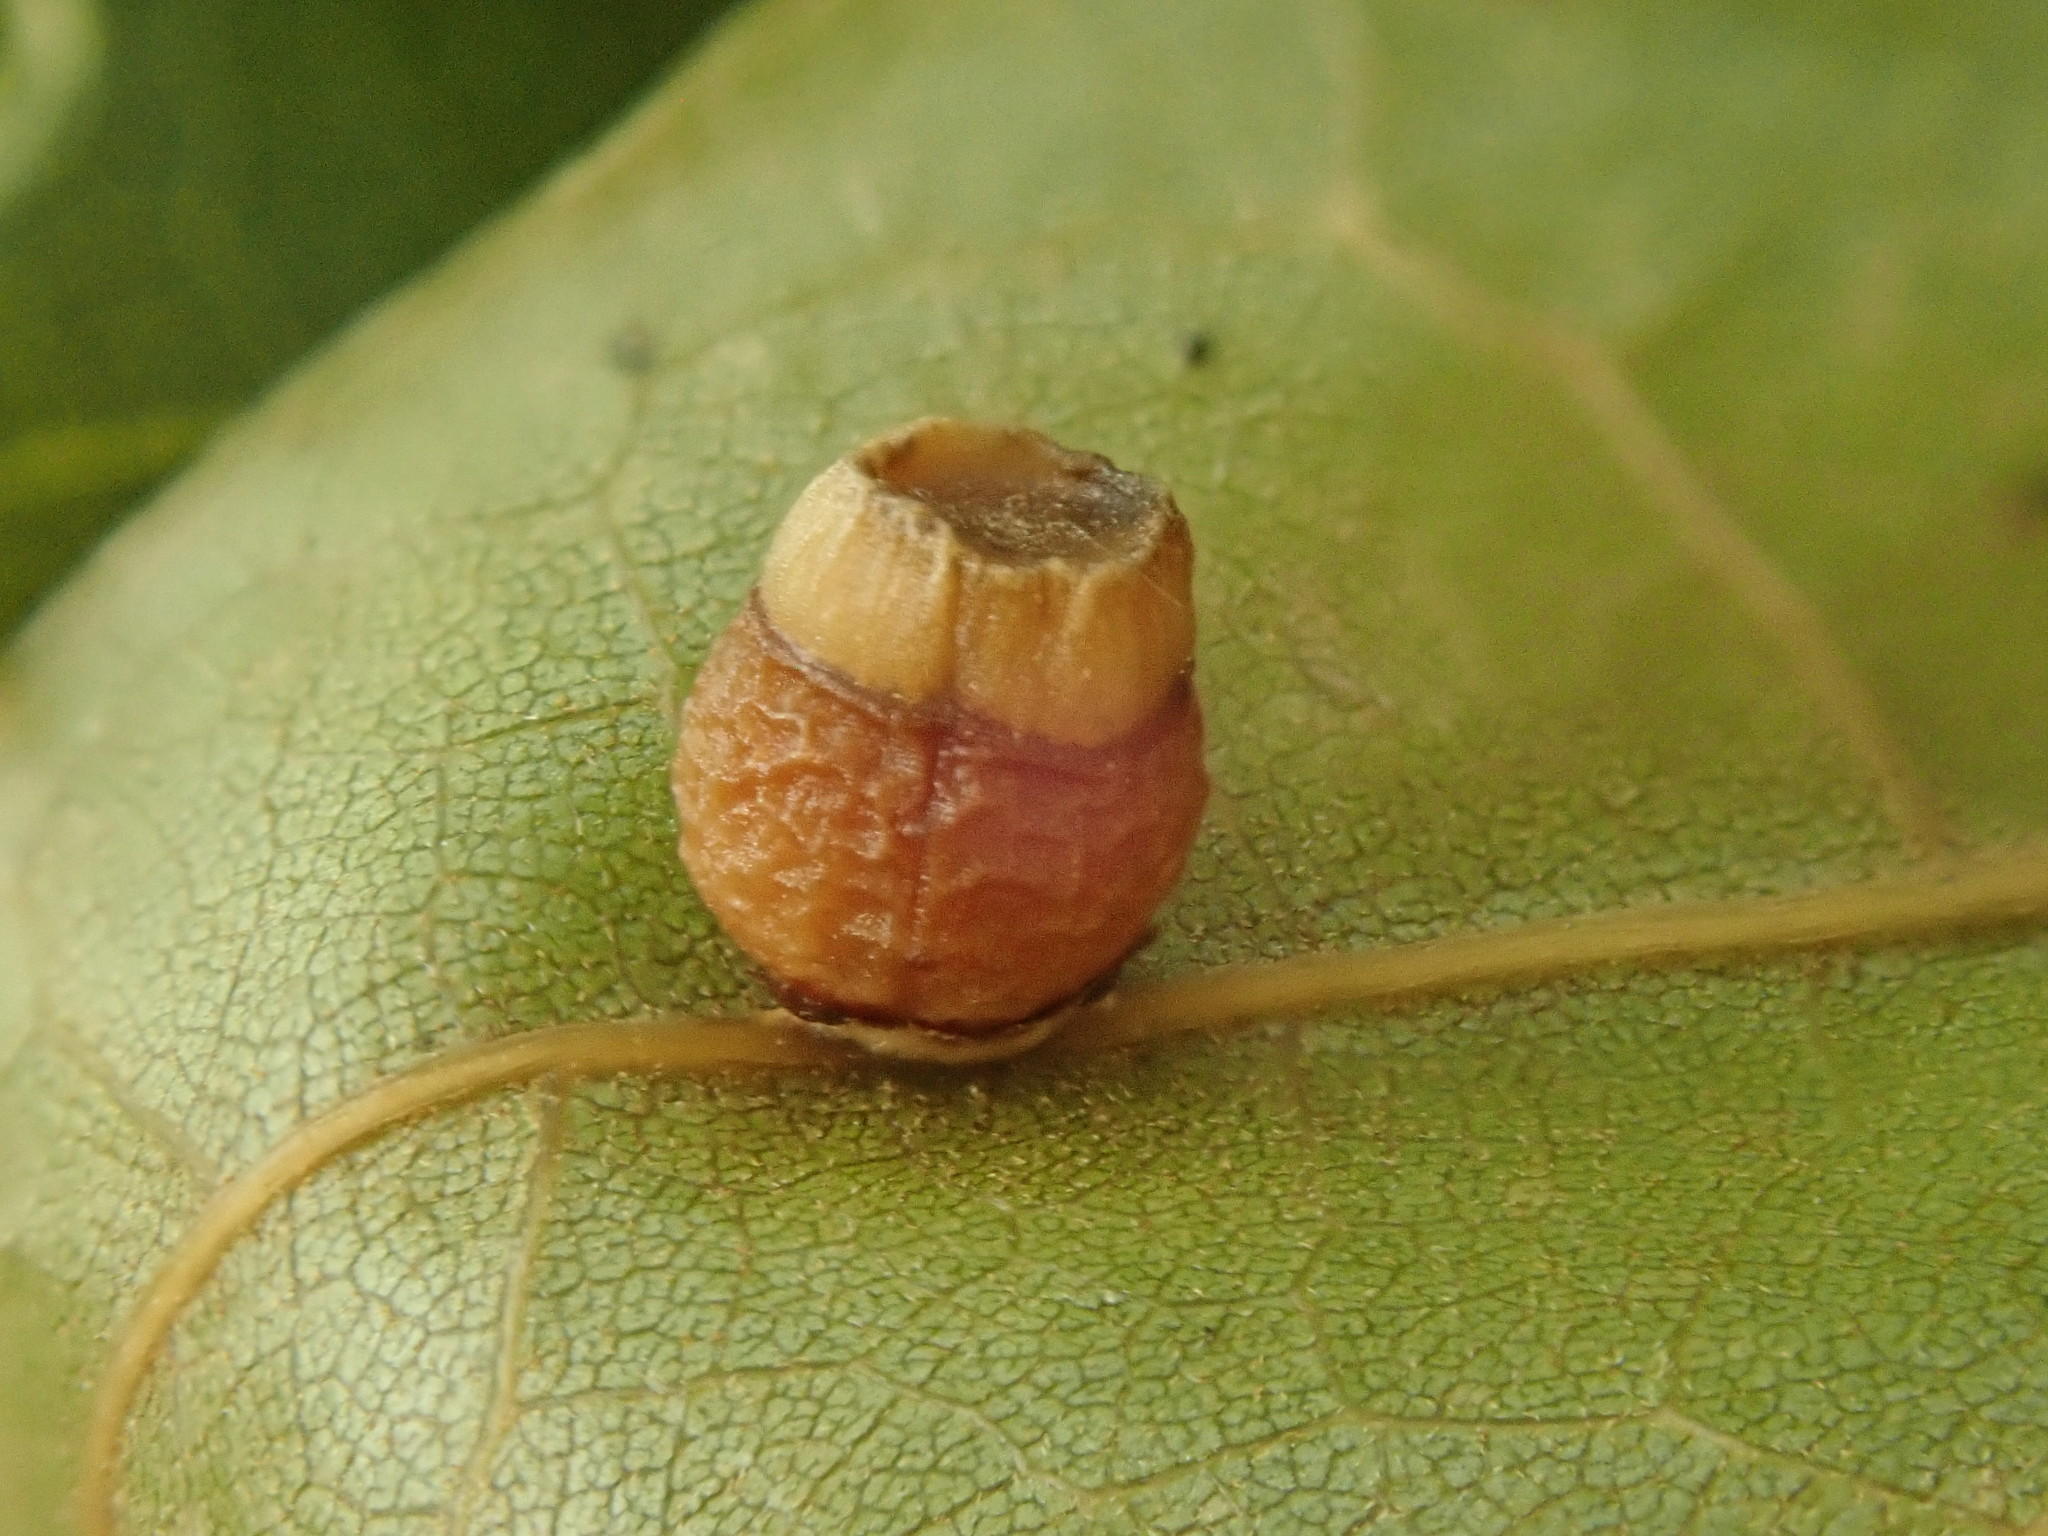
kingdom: Animalia
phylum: Arthropoda
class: Insecta
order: Hymenoptera
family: Cynipidae
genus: Kokkocynips
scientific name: Kokkocynips rileyi
